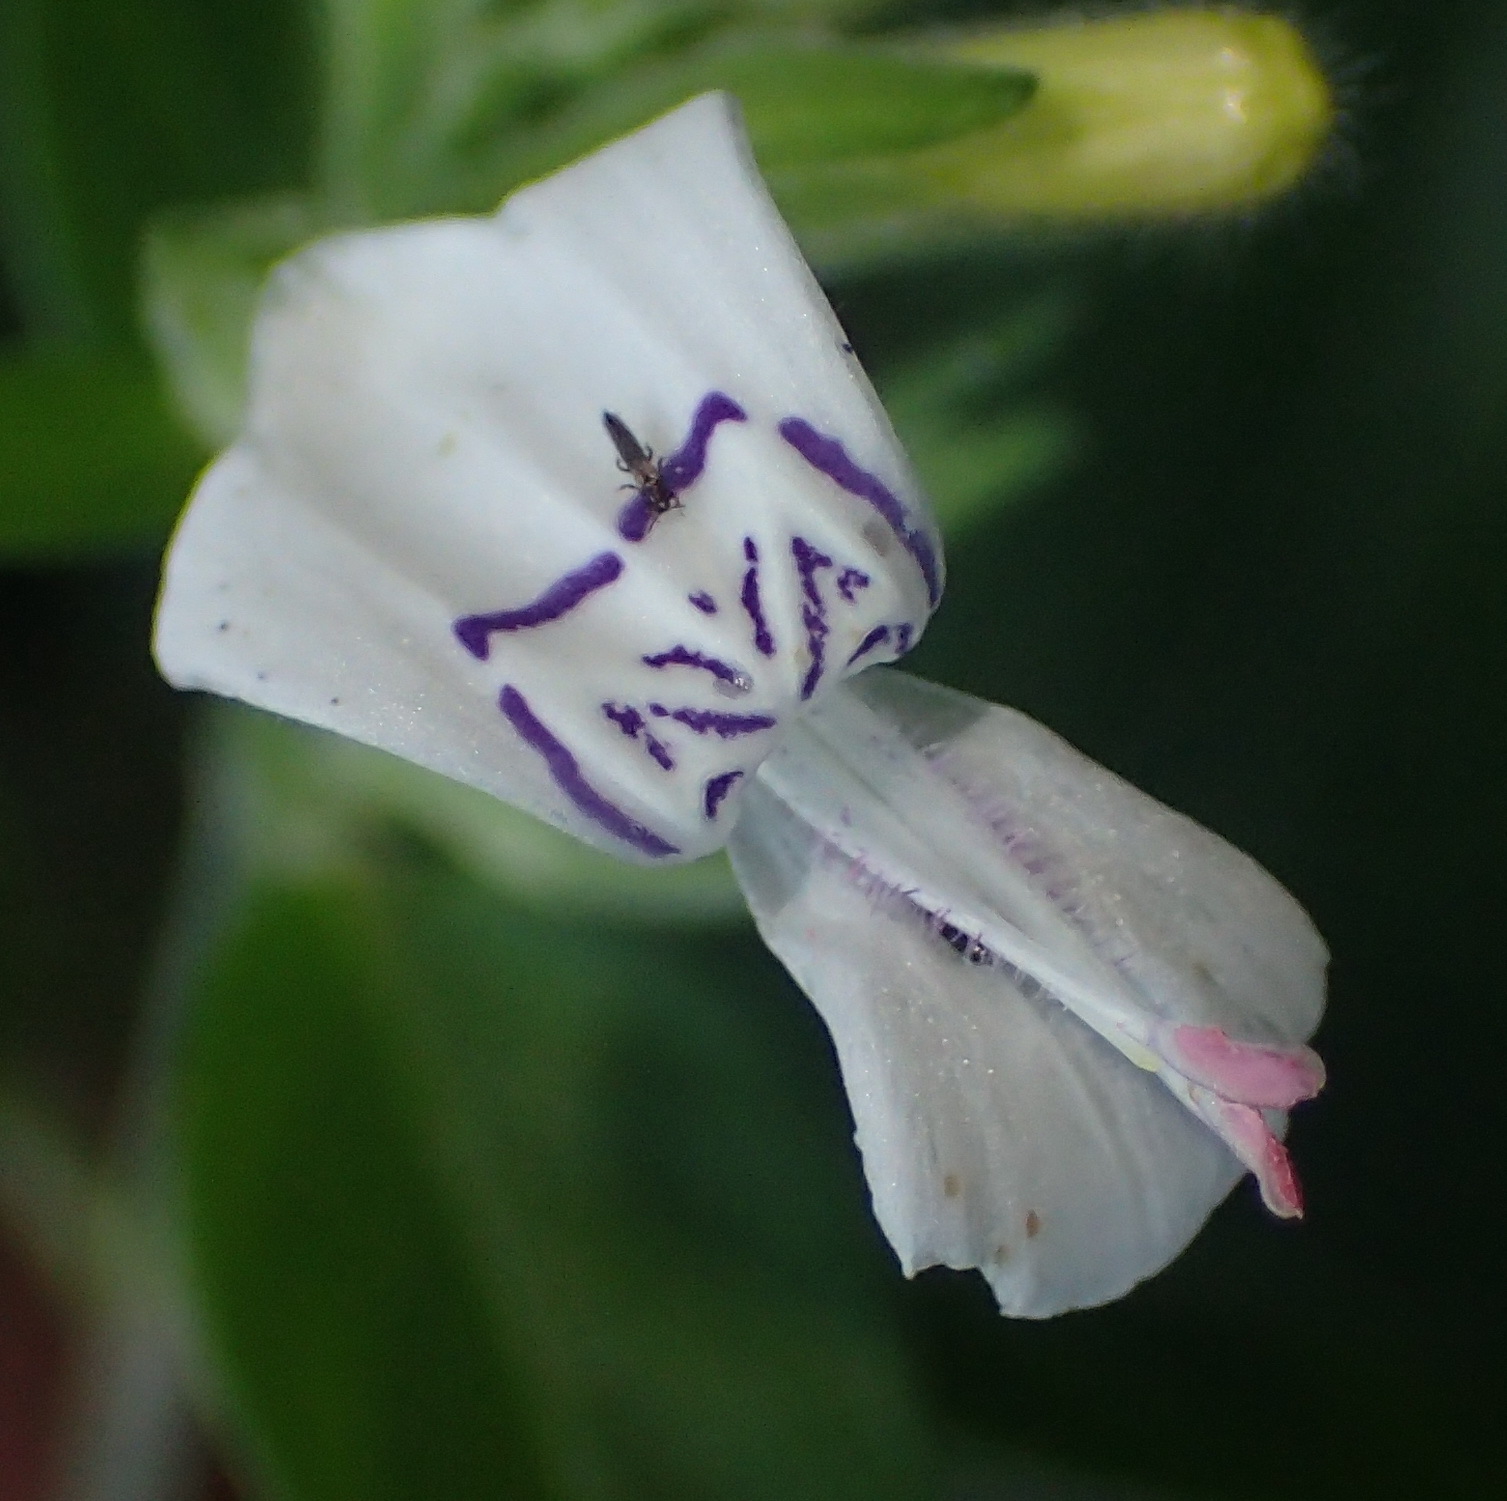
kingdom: Plantae
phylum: Tracheophyta
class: Magnoliopsida
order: Lamiales
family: Acanthaceae
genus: Hypoestes
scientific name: Hypoestes forskaolii
